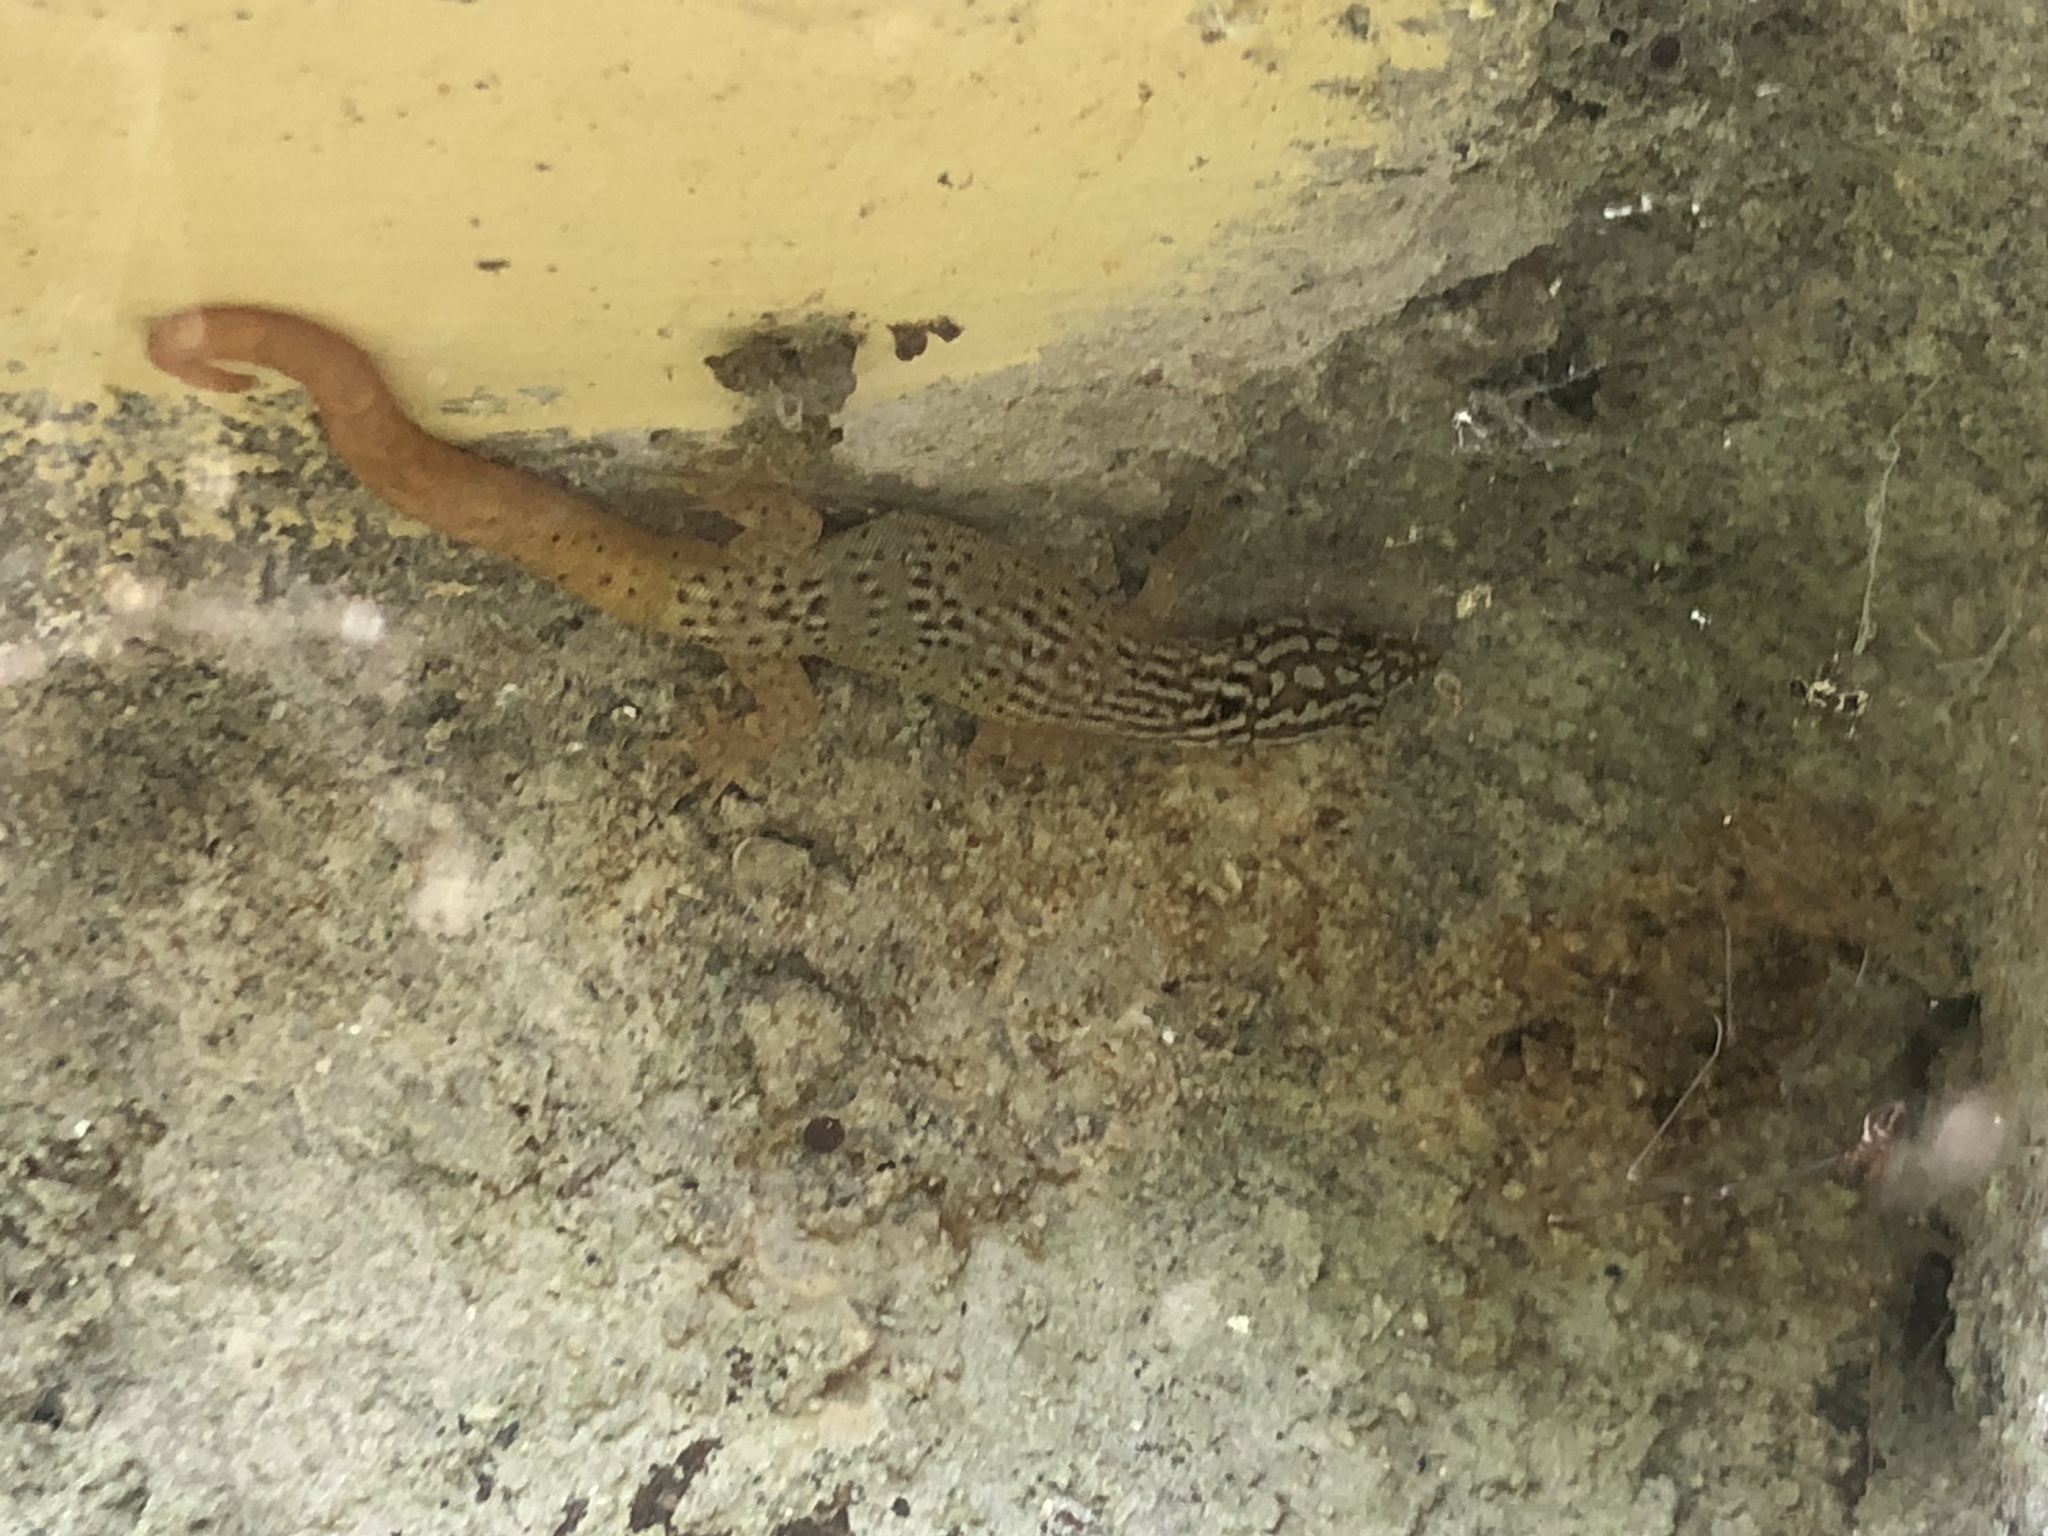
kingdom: Animalia
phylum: Chordata
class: Squamata
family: Sphaerodactylidae
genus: Sphaerodactylus
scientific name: Sphaerodactylus lineolatus
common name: Panama least gecko
